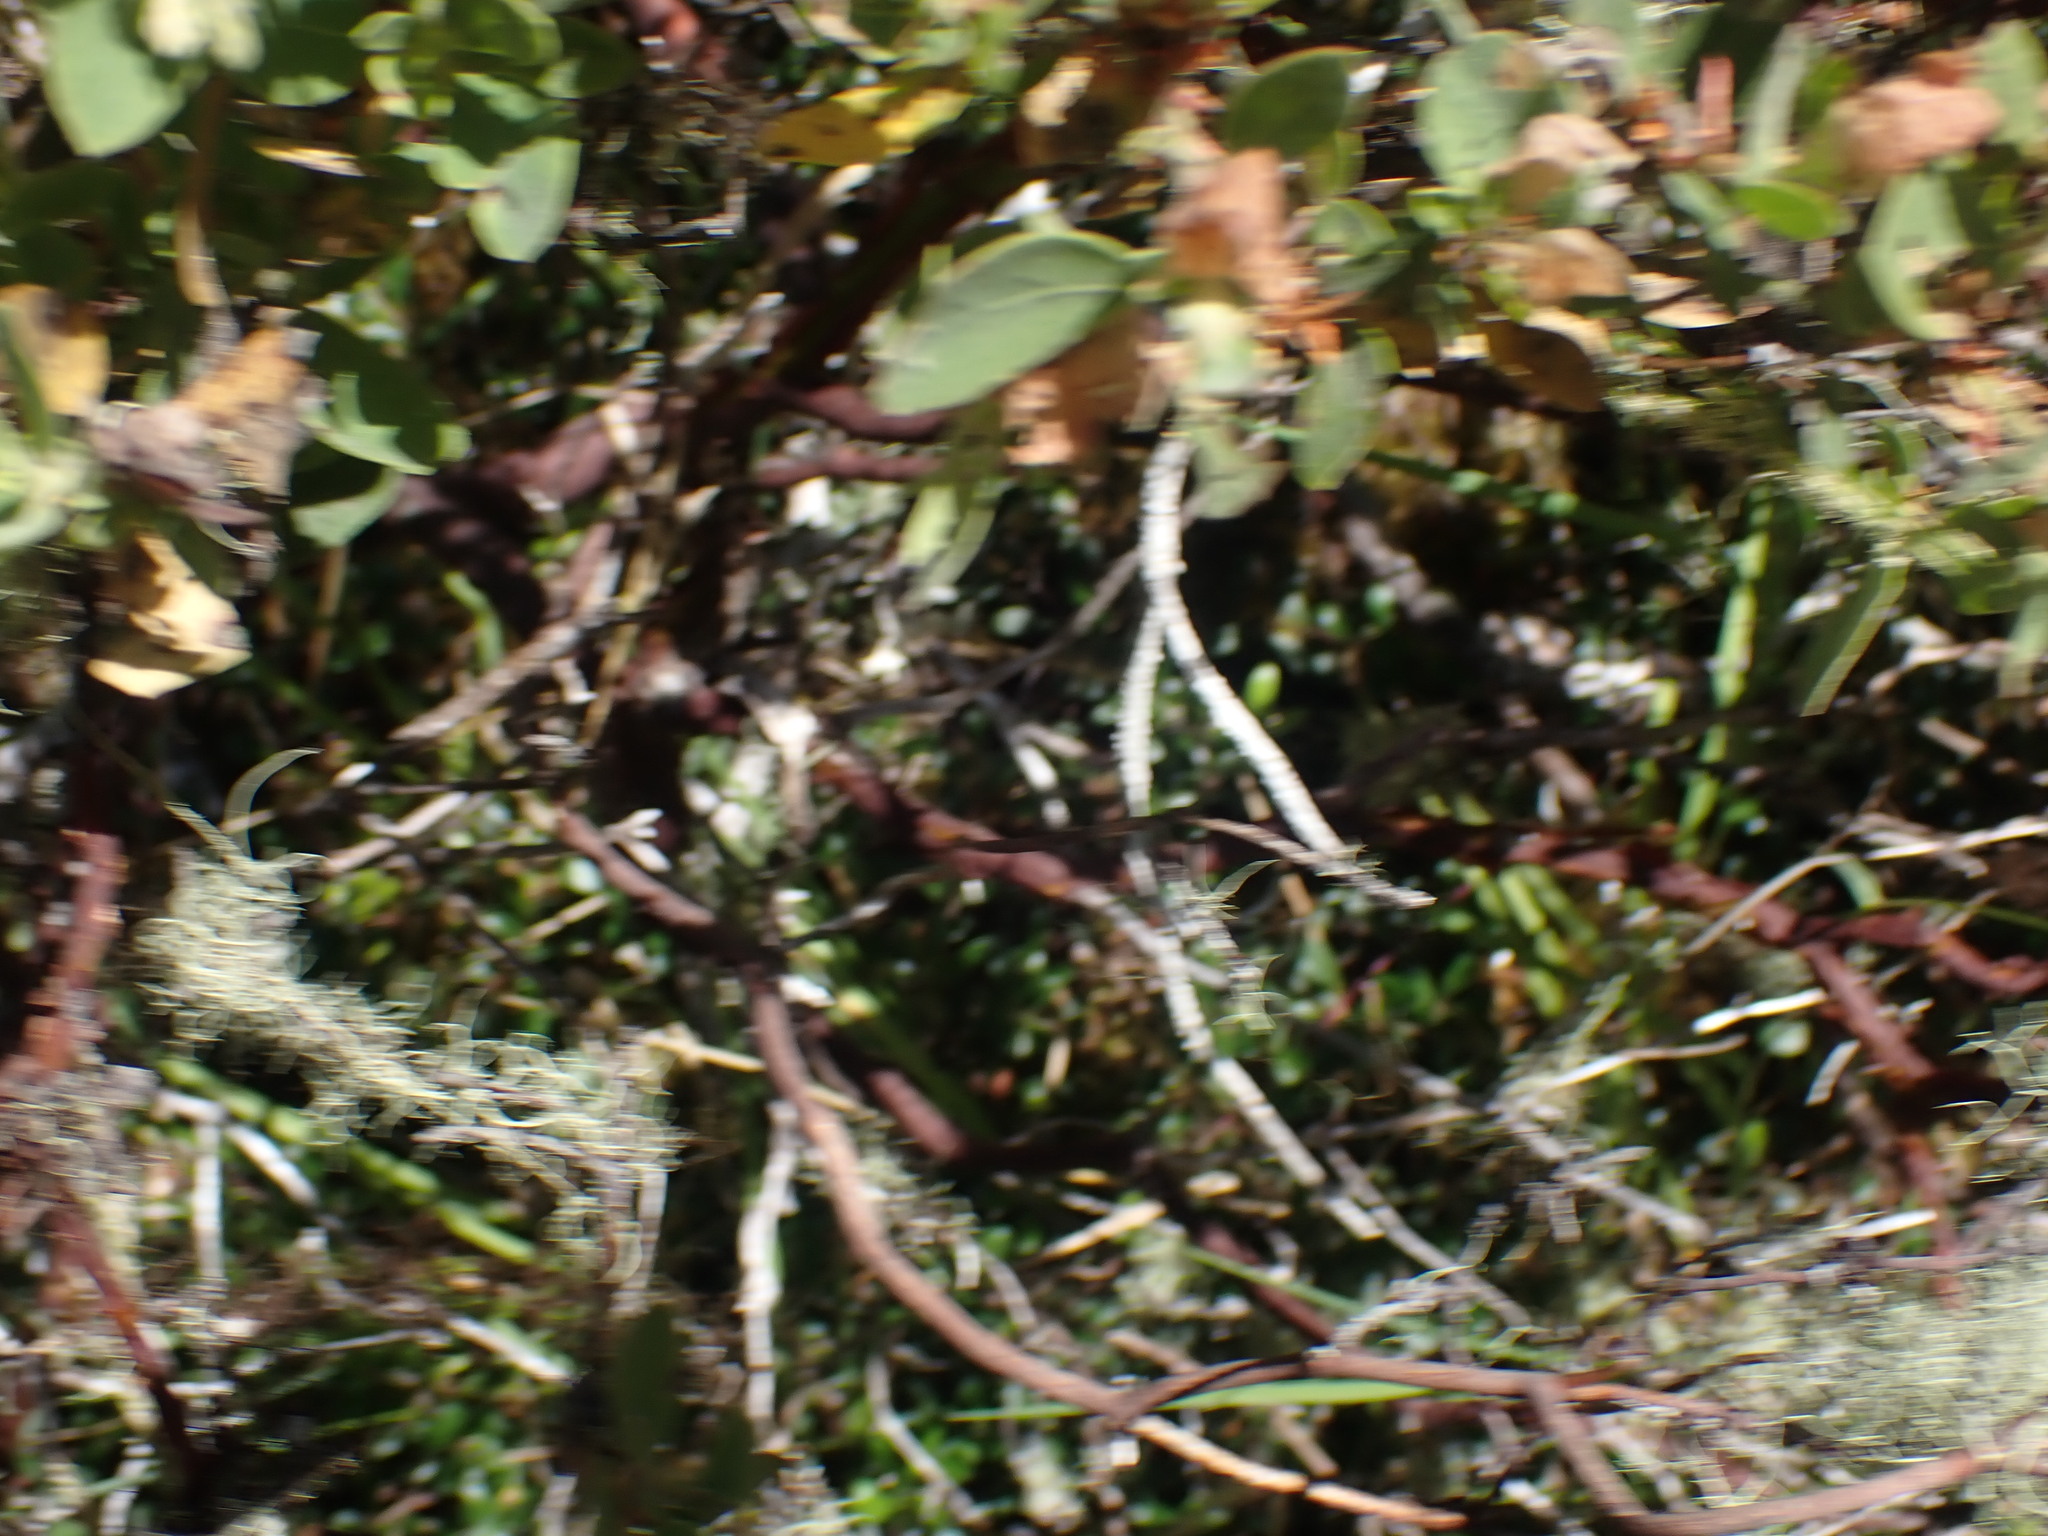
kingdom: Plantae
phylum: Tracheophyta
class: Magnoliopsida
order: Ericales
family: Ericaceae
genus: Arctostaphylos
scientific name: Arctostaphylos columbiana
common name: Bristly bearberry
